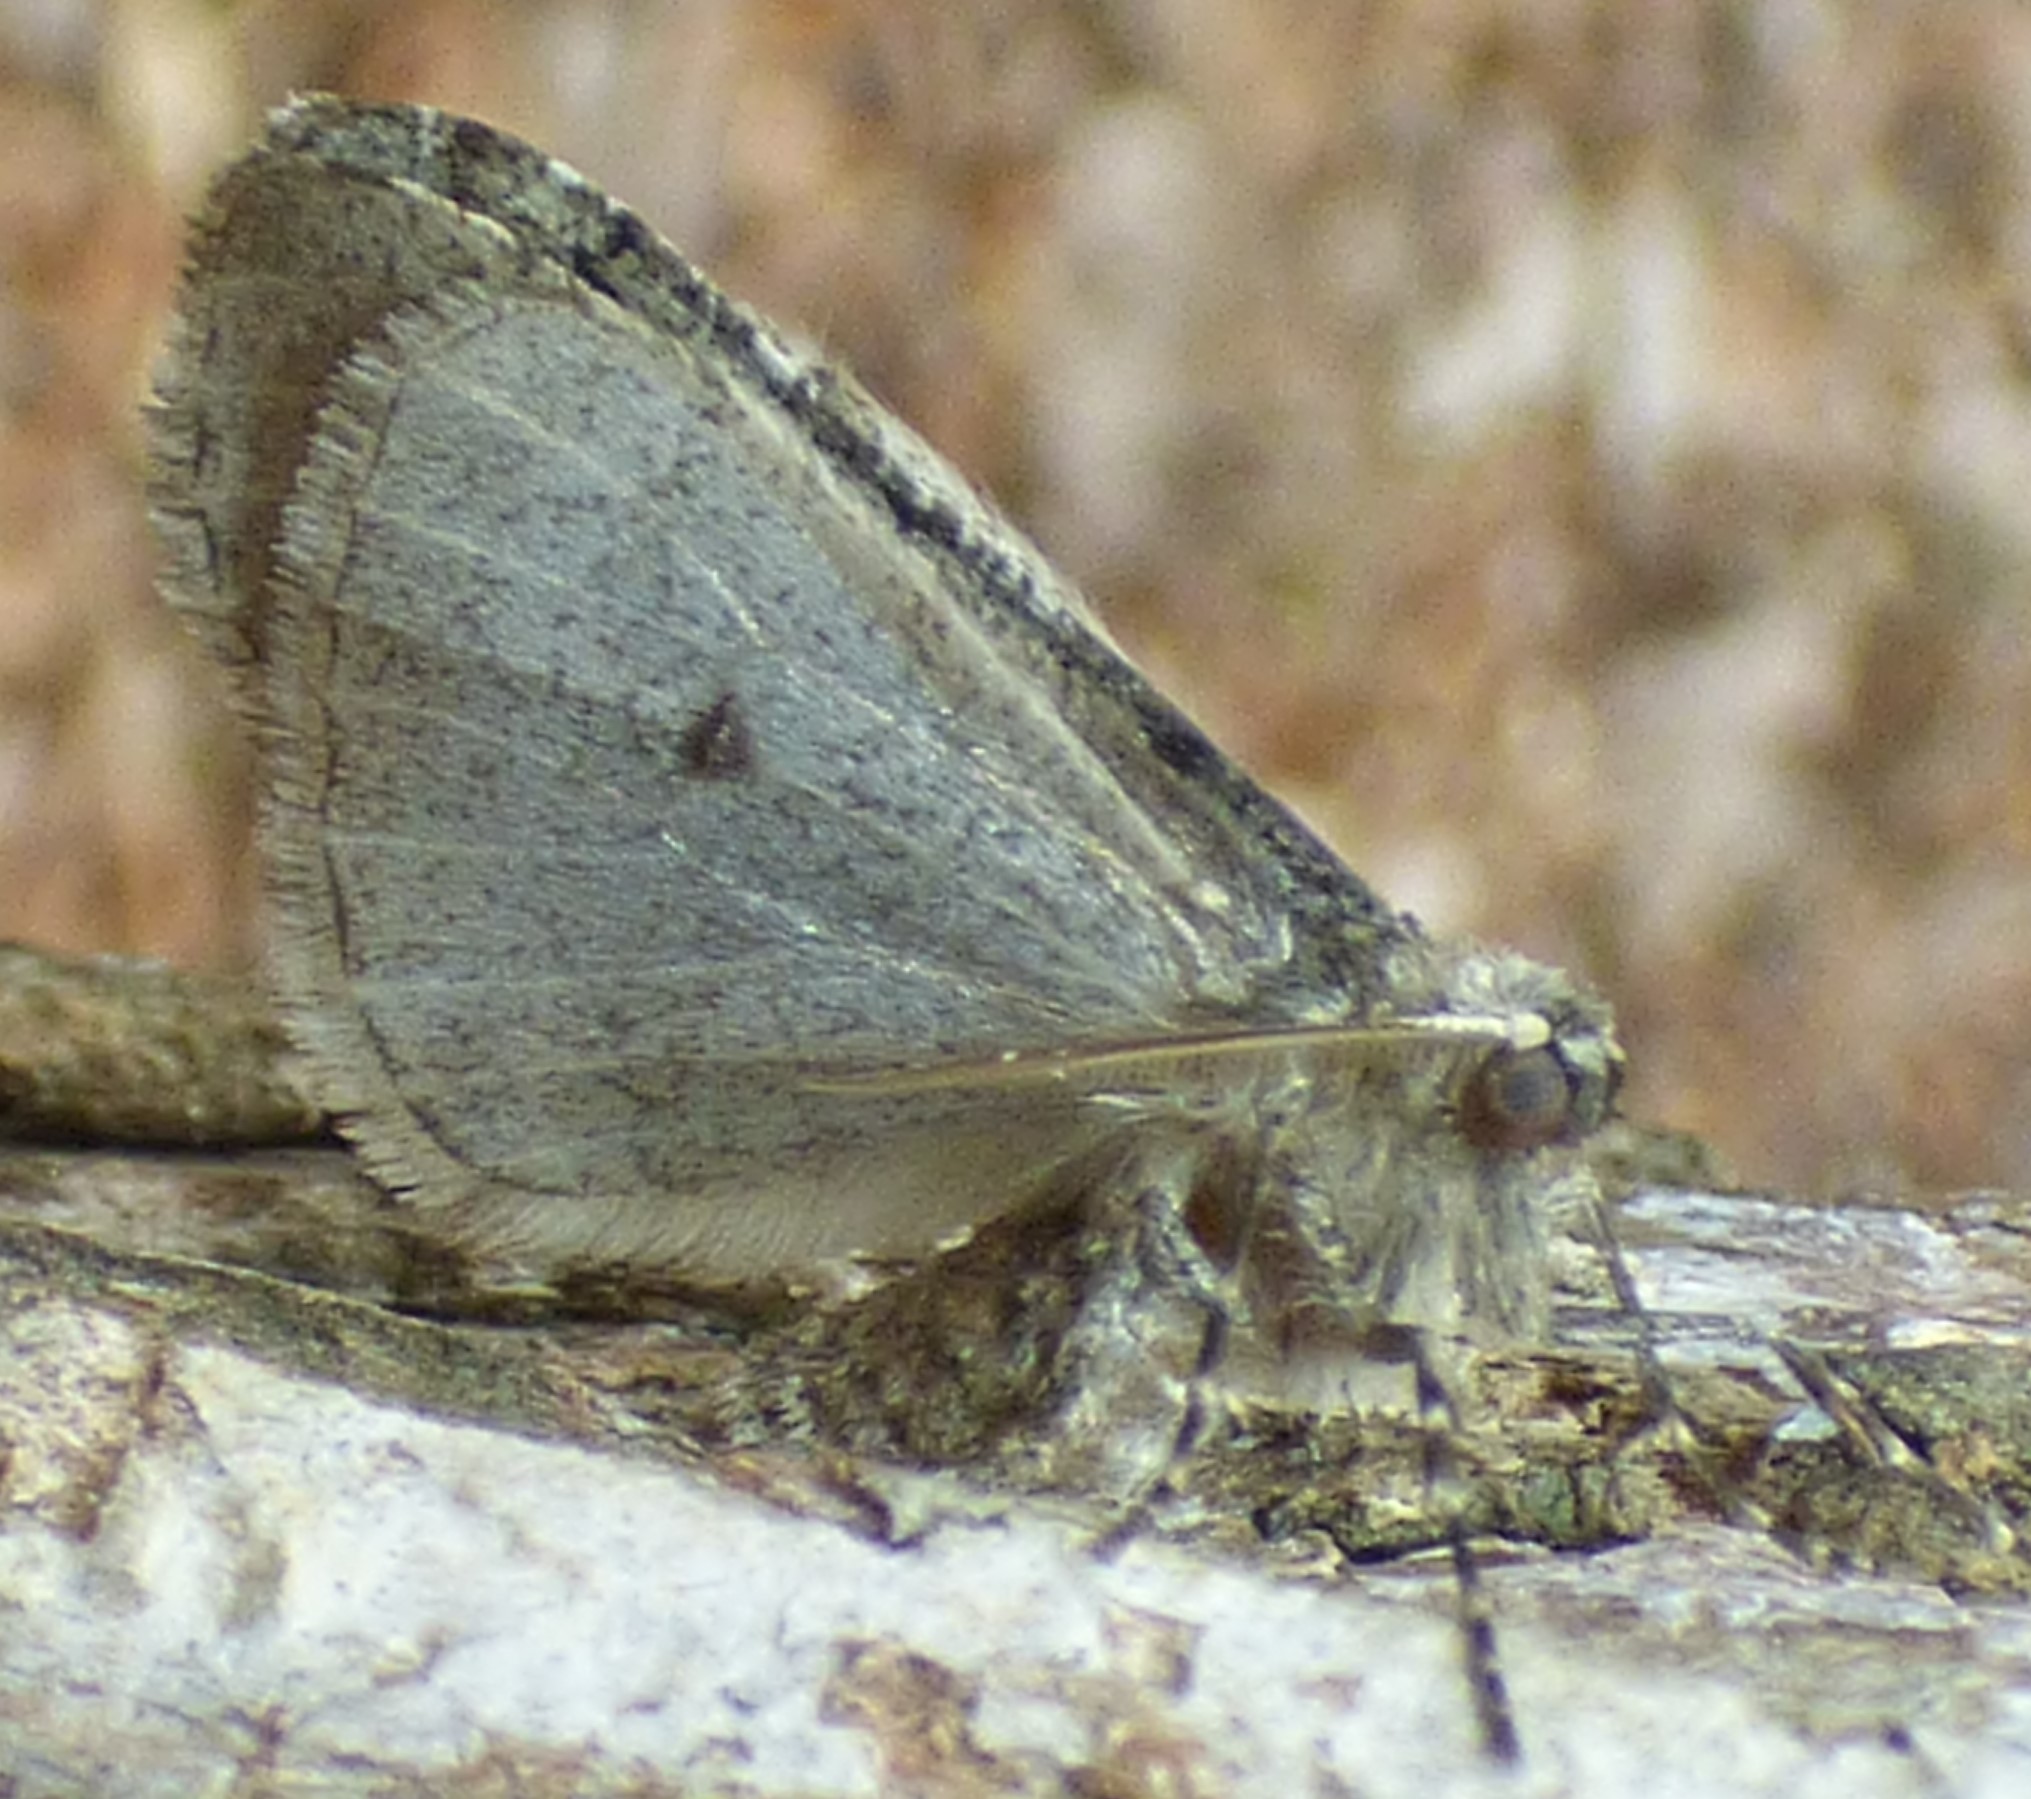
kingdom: Animalia
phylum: Arthropoda
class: Insecta
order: Lepidoptera
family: Geometridae
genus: Paleacrita
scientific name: Paleacrita vernata
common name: Spring cankerworm
